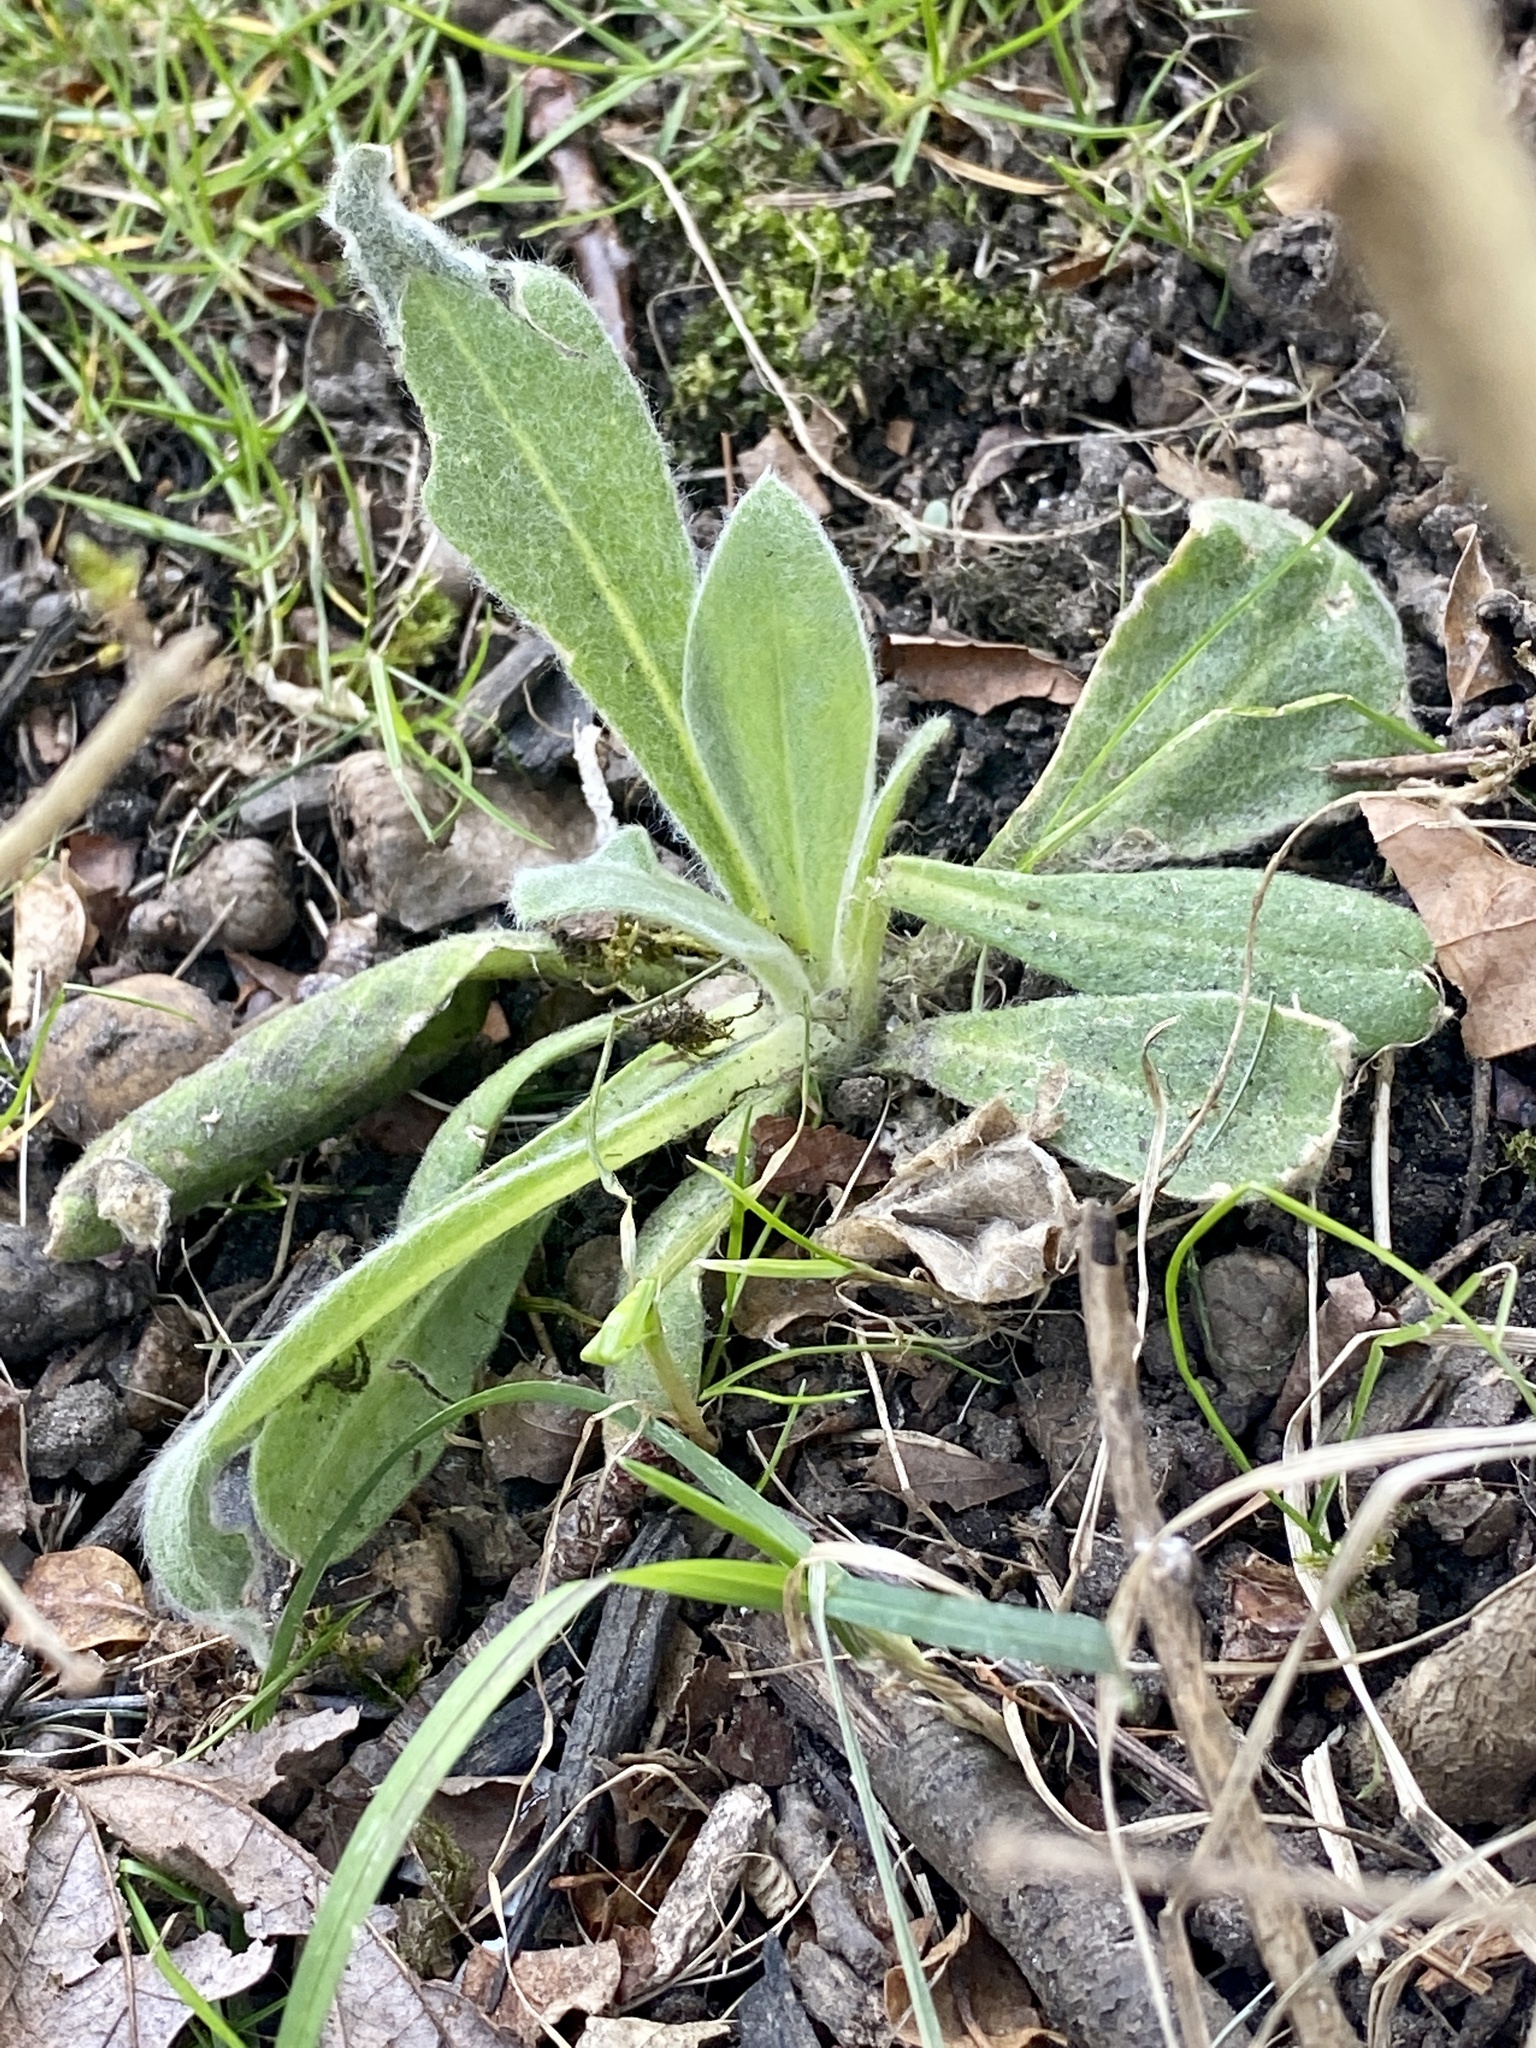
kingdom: Plantae
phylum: Tracheophyta
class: Magnoliopsida
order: Caryophyllales
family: Caryophyllaceae
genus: Silene
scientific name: Silene coronaria
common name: Rose campion
